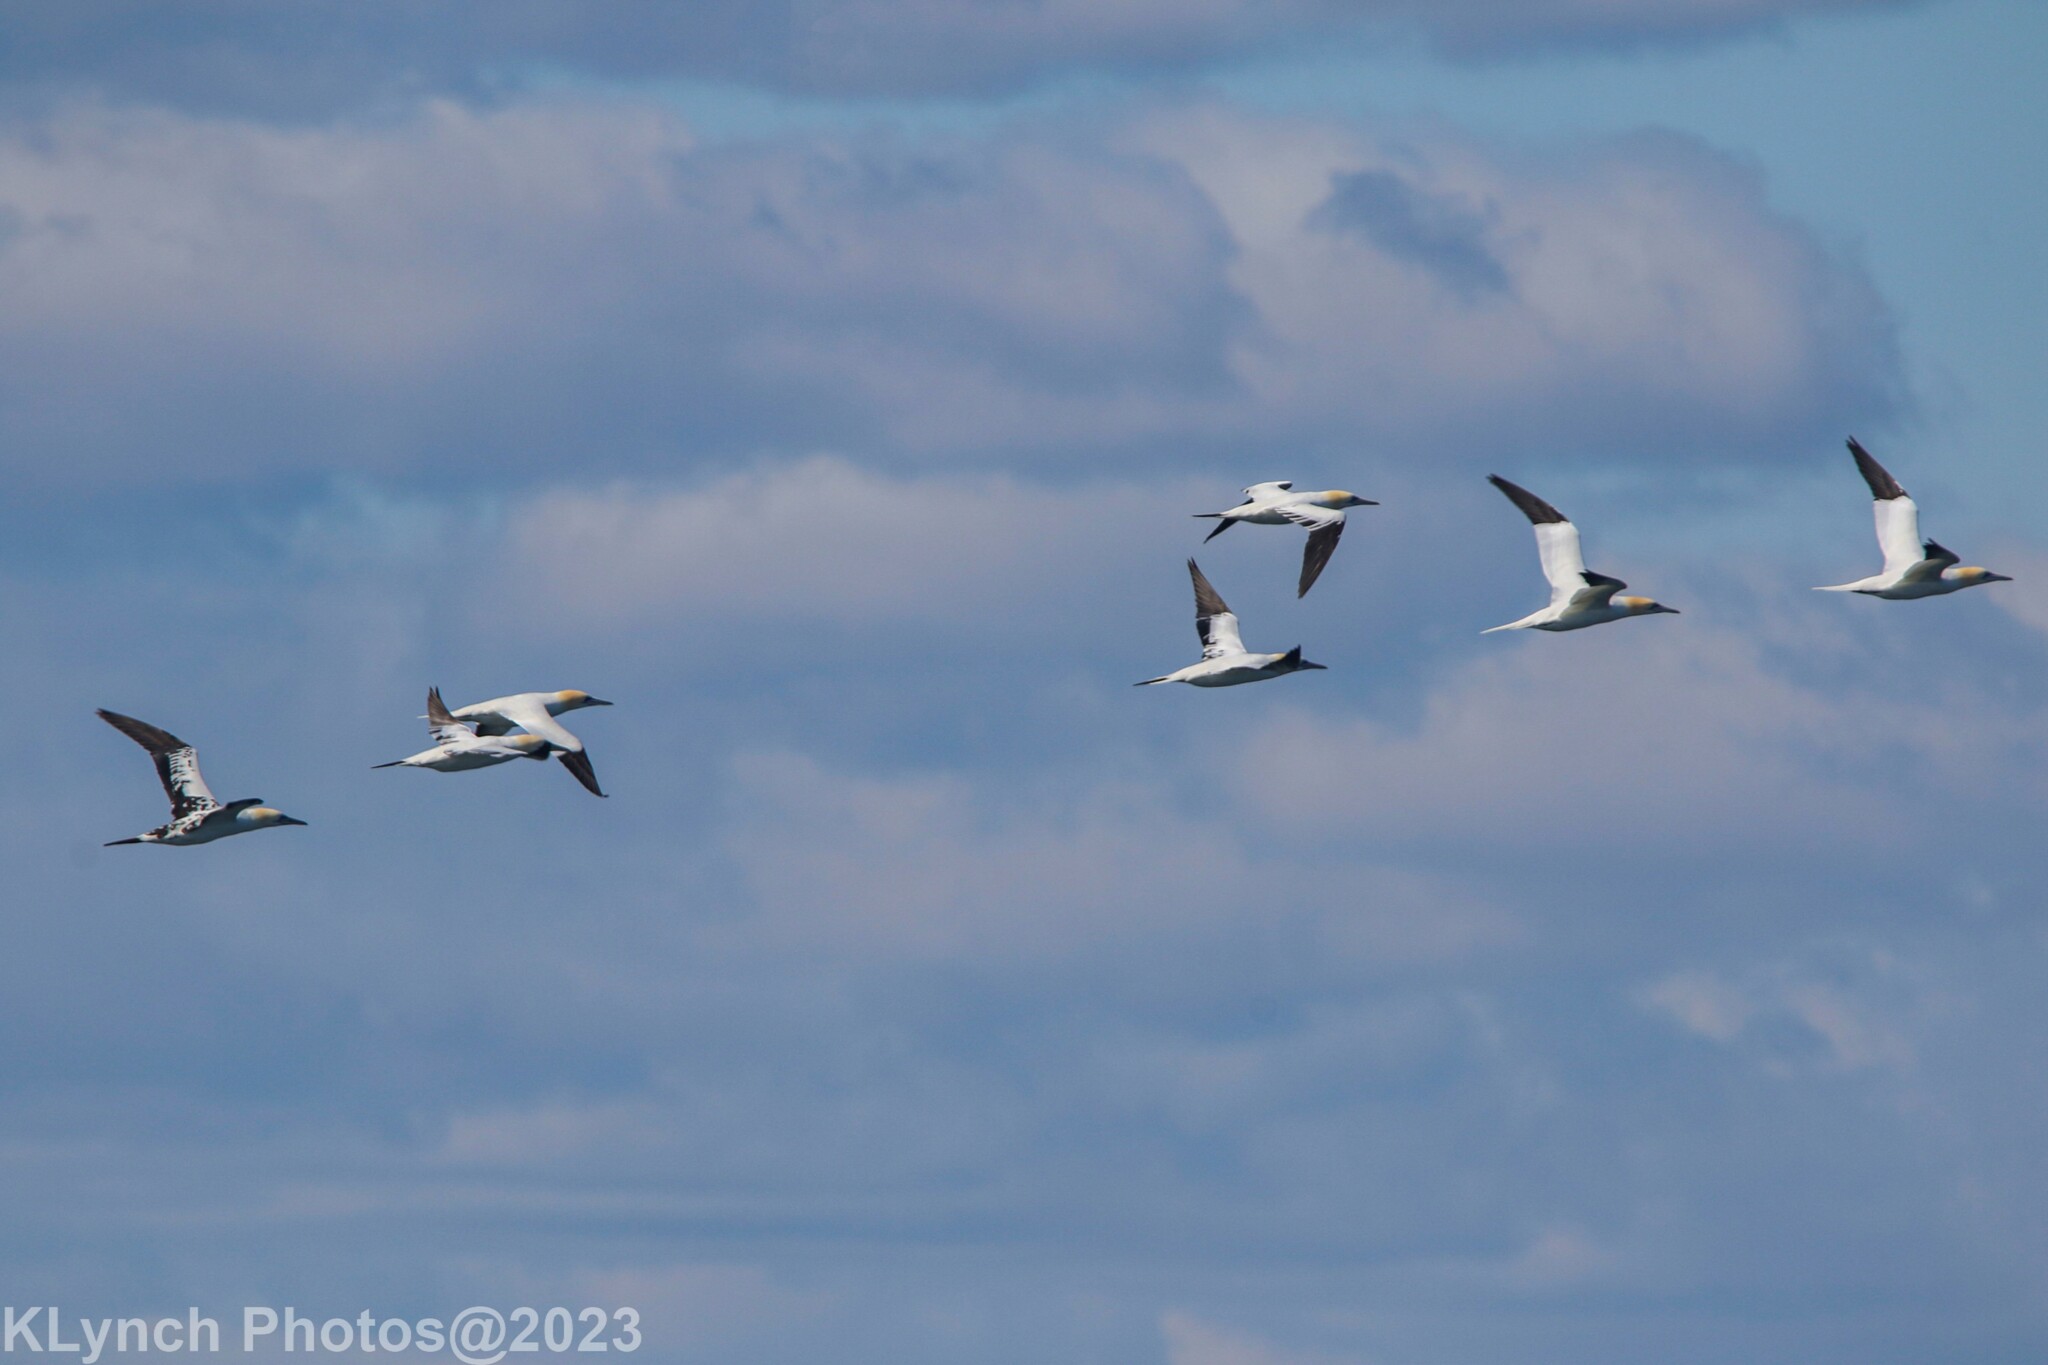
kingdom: Animalia
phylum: Chordata
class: Aves
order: Suliformes
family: Sulidae
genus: Morus
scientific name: Morus bassanus
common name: Northern gannet
